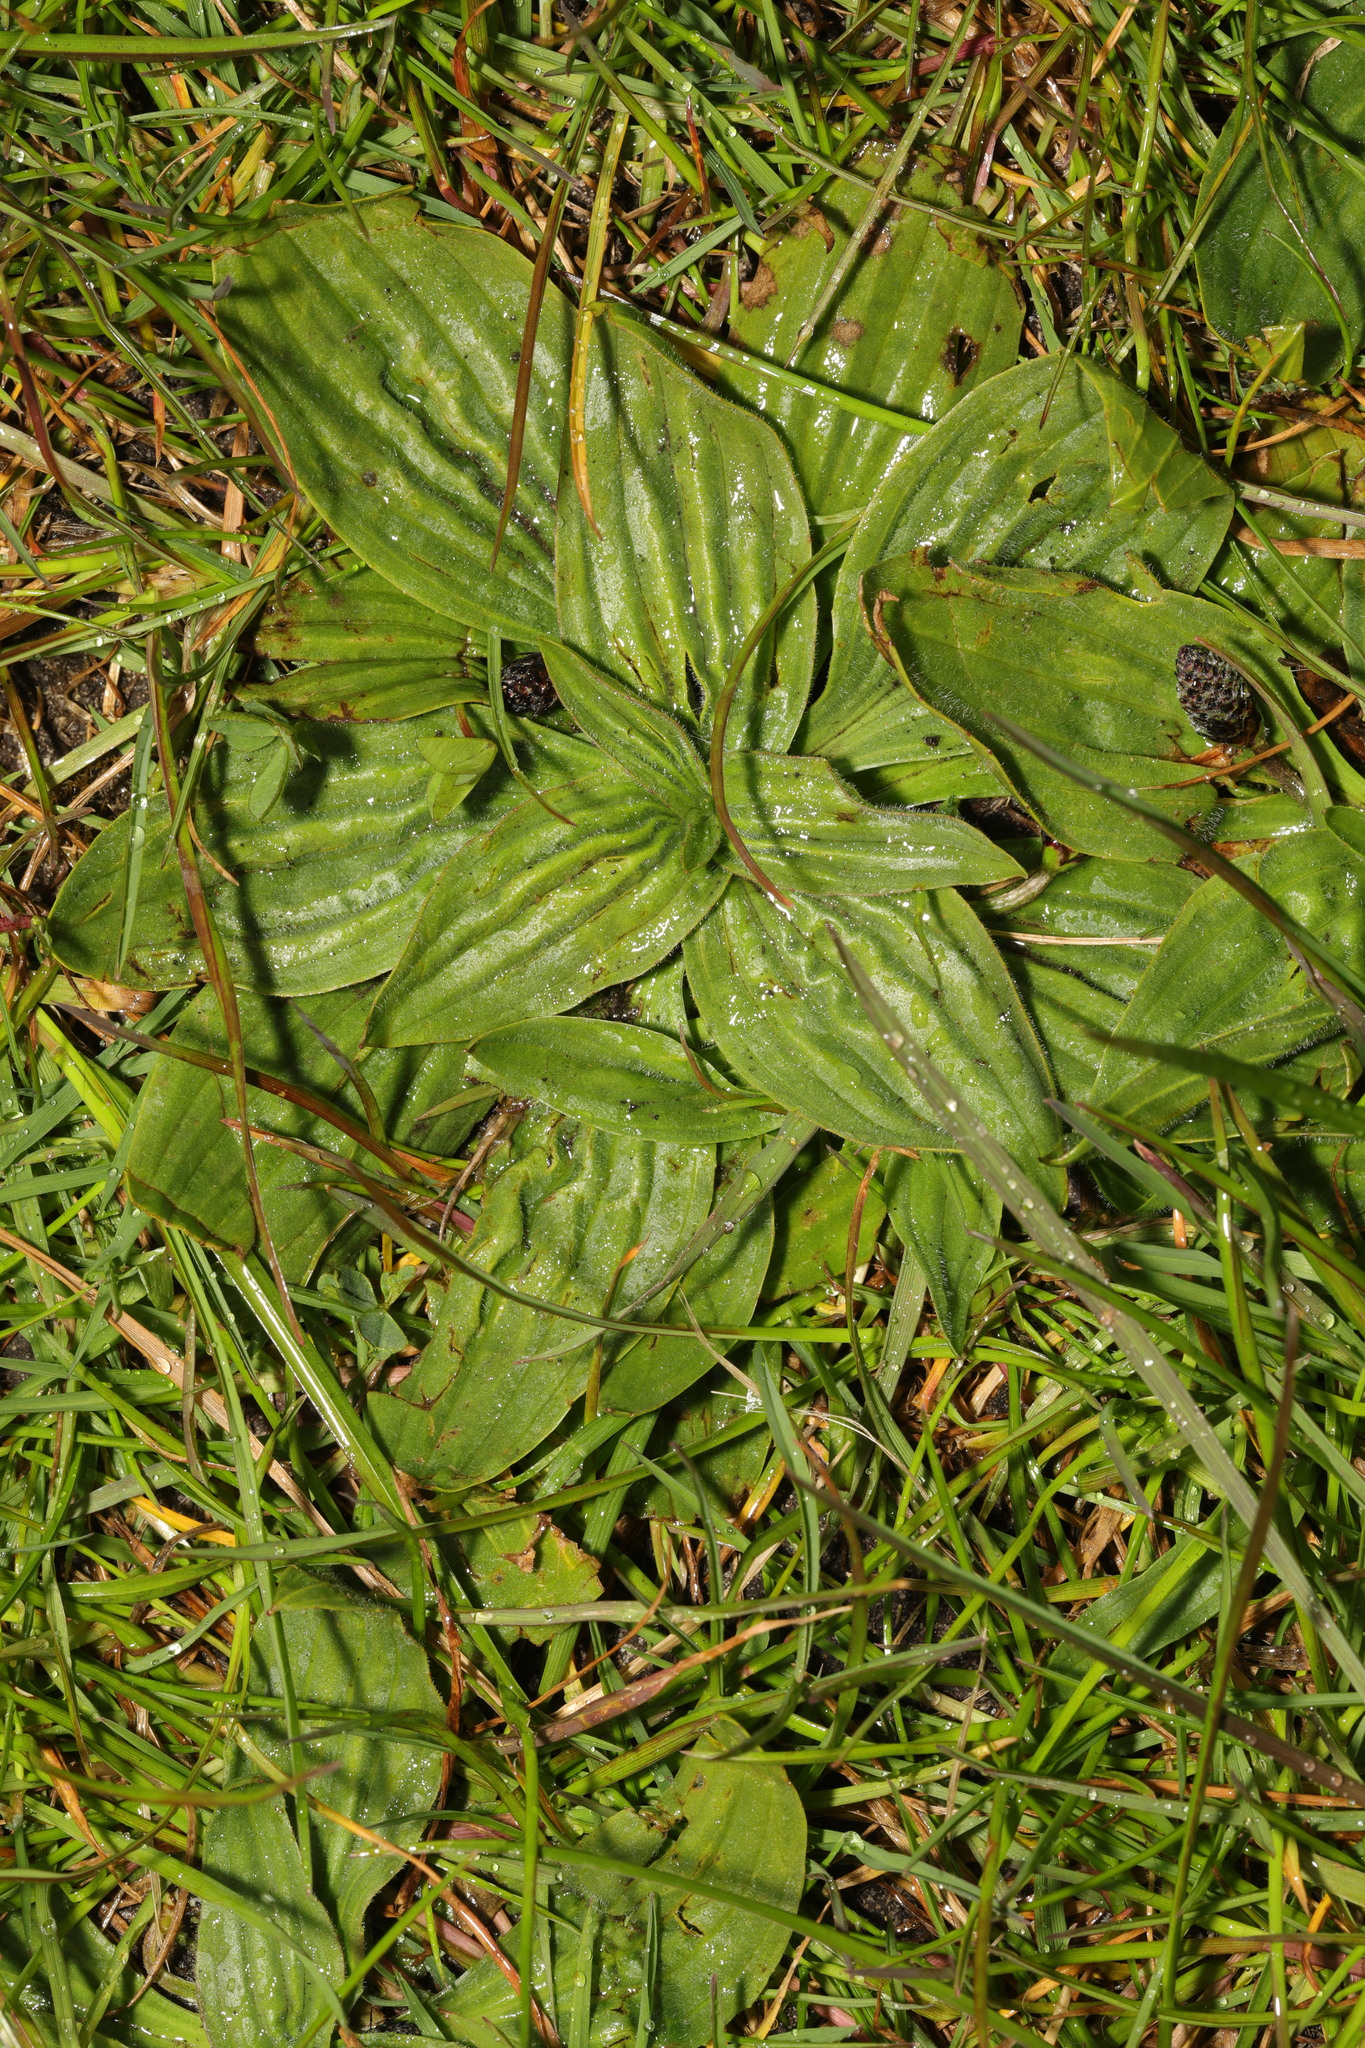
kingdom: Plantae
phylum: Tracheophyta
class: Magnoliopsida
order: Lamiales
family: Plantaginaceae
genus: Plantago
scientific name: Plantago media
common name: Hoary plantain
